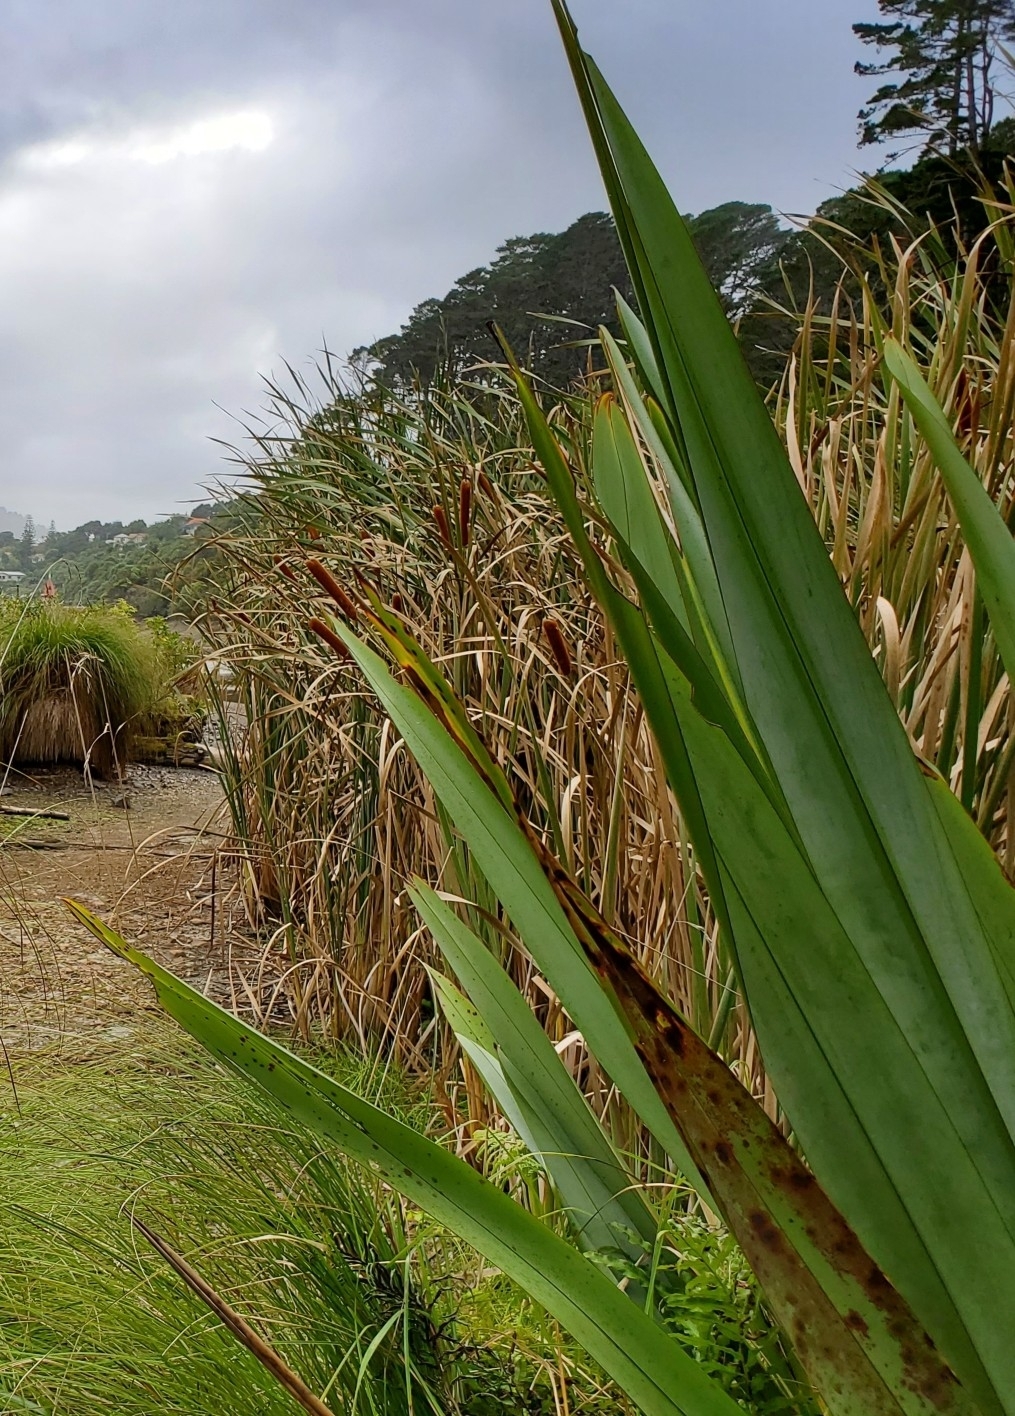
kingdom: Plantae
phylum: Tracheophyta
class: Liliopsida
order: Poales
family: Typhaceae
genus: Typha
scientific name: Typha orientalis
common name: Bullrush
